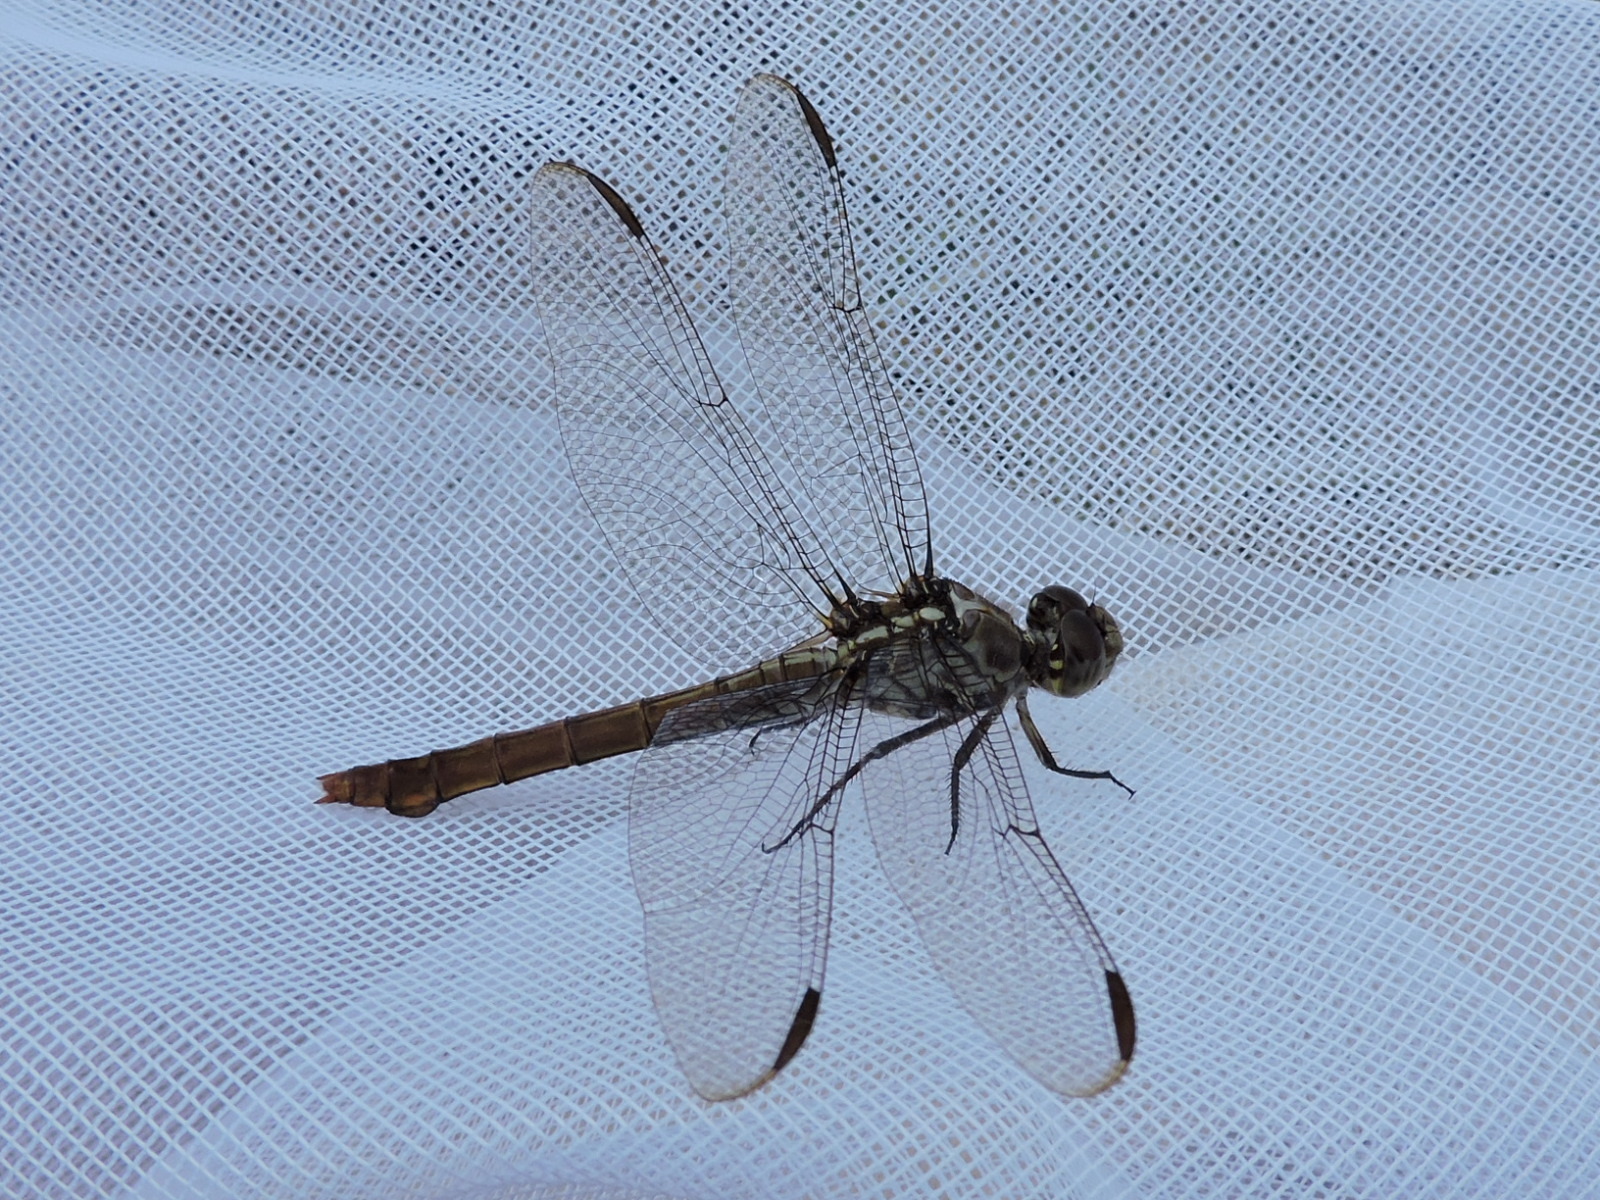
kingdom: Animalia
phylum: Arthropoda
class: Insecta
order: Odonata
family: Libellulidae
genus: Orthemis
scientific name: Orthemis ferruginea
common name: Roseate skimmer
